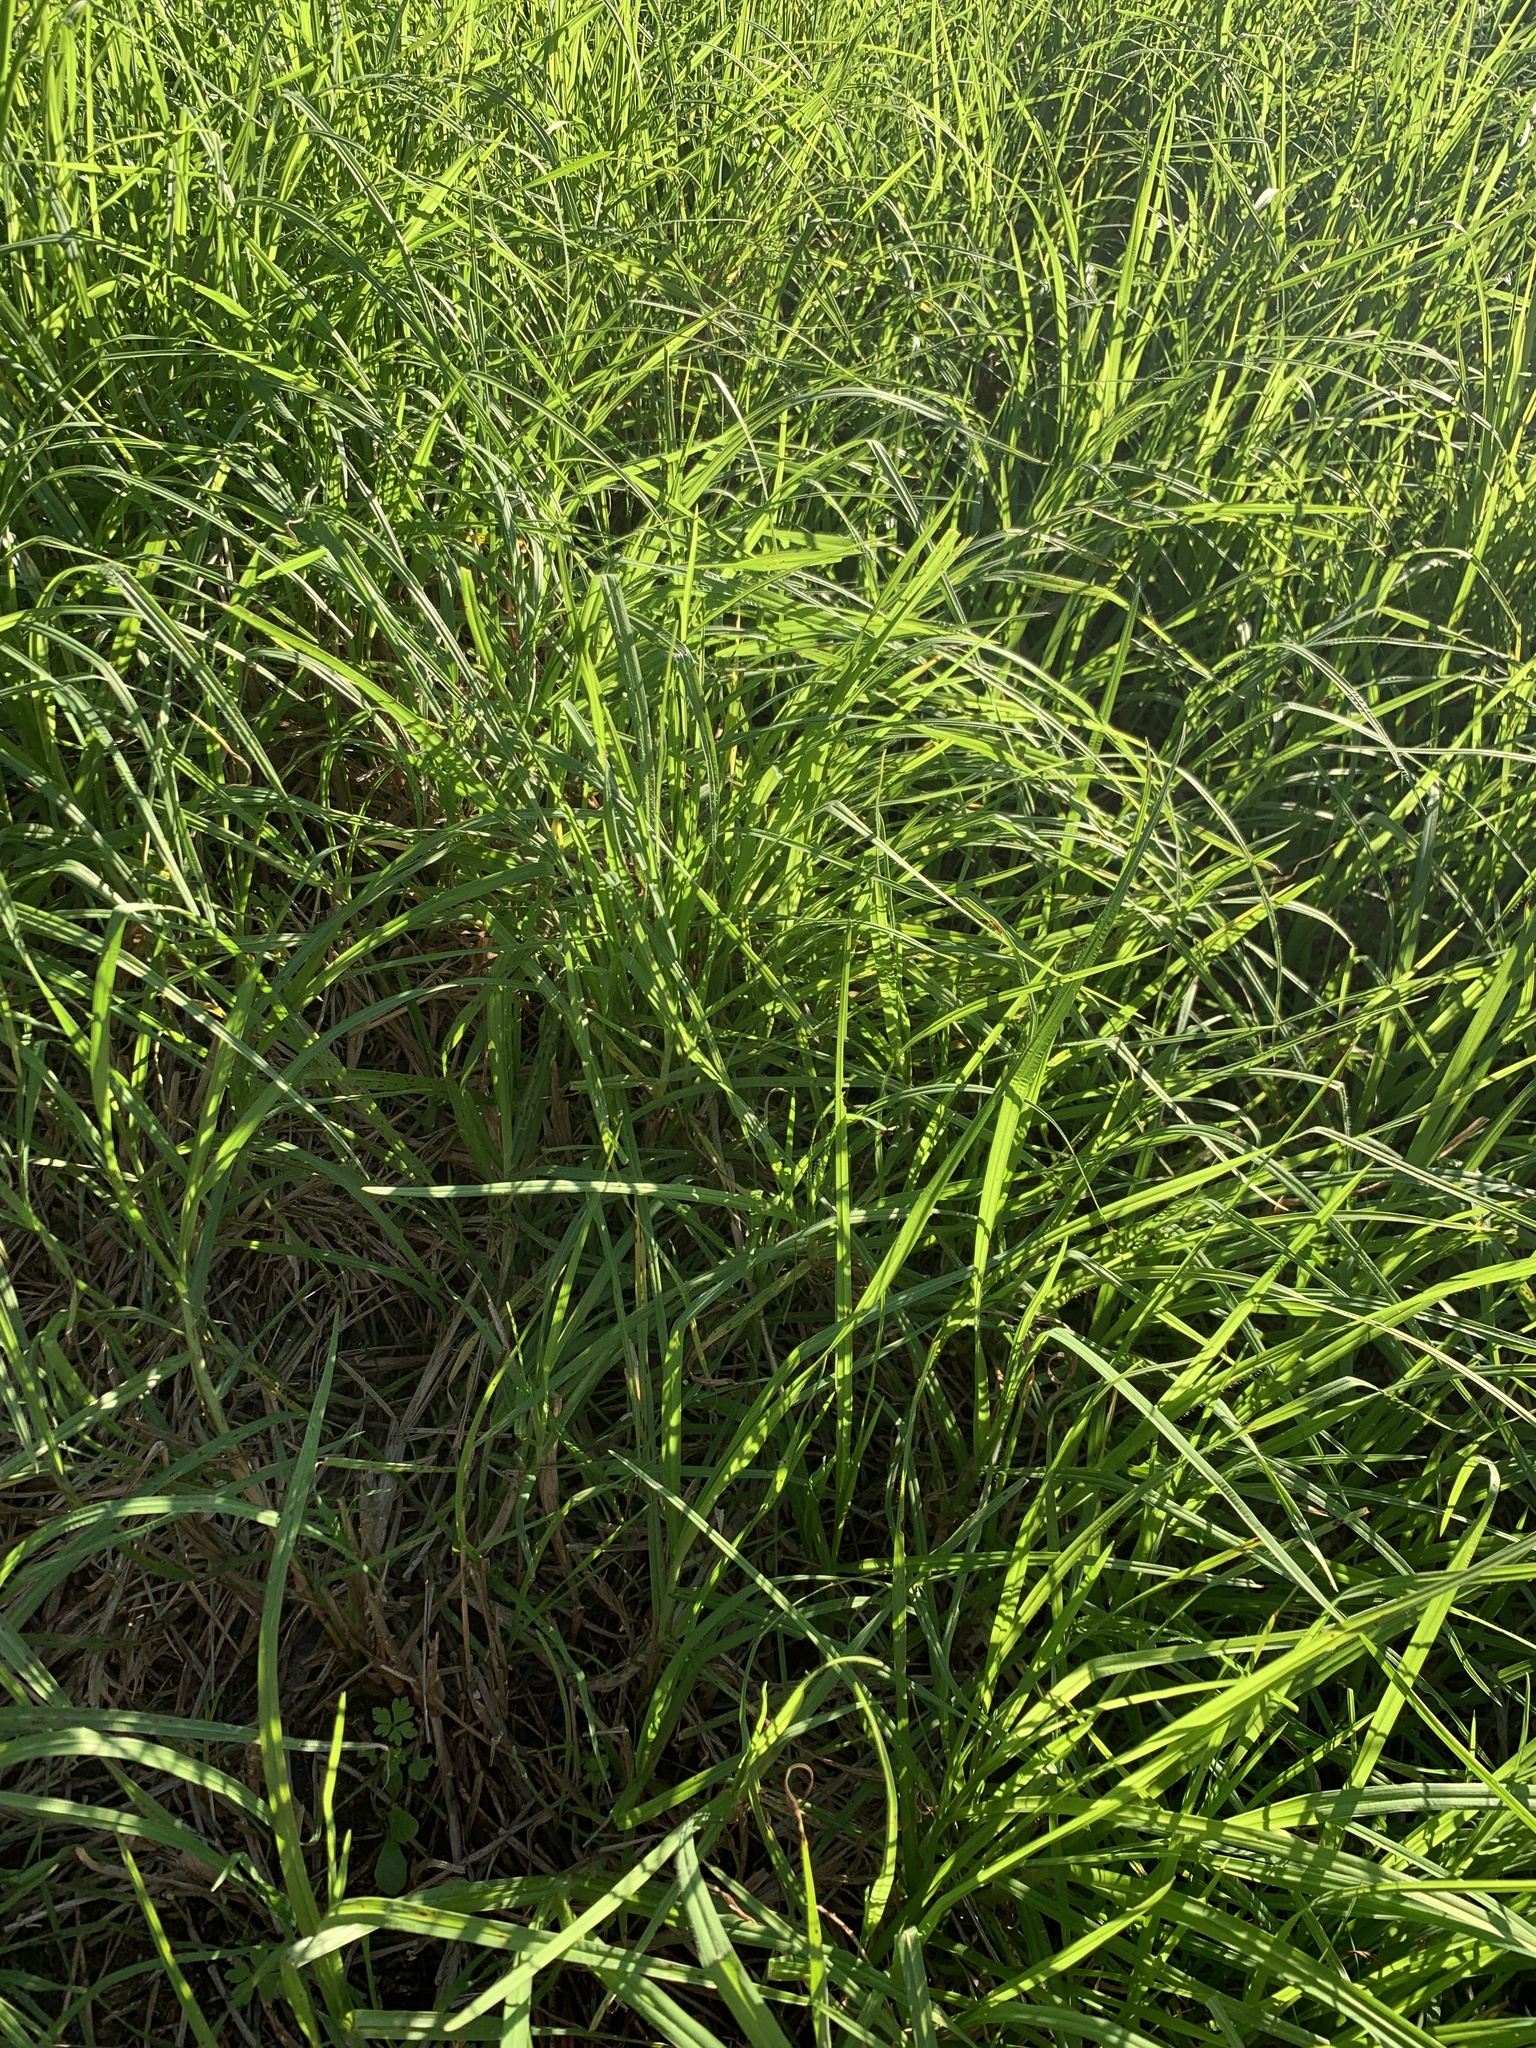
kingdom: Plantae
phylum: Tracheophyta
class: Liliopsida
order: Poales
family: Poaceae
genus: Cenchrus
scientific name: Cenchrus clandestinus
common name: Kikuyugrass
